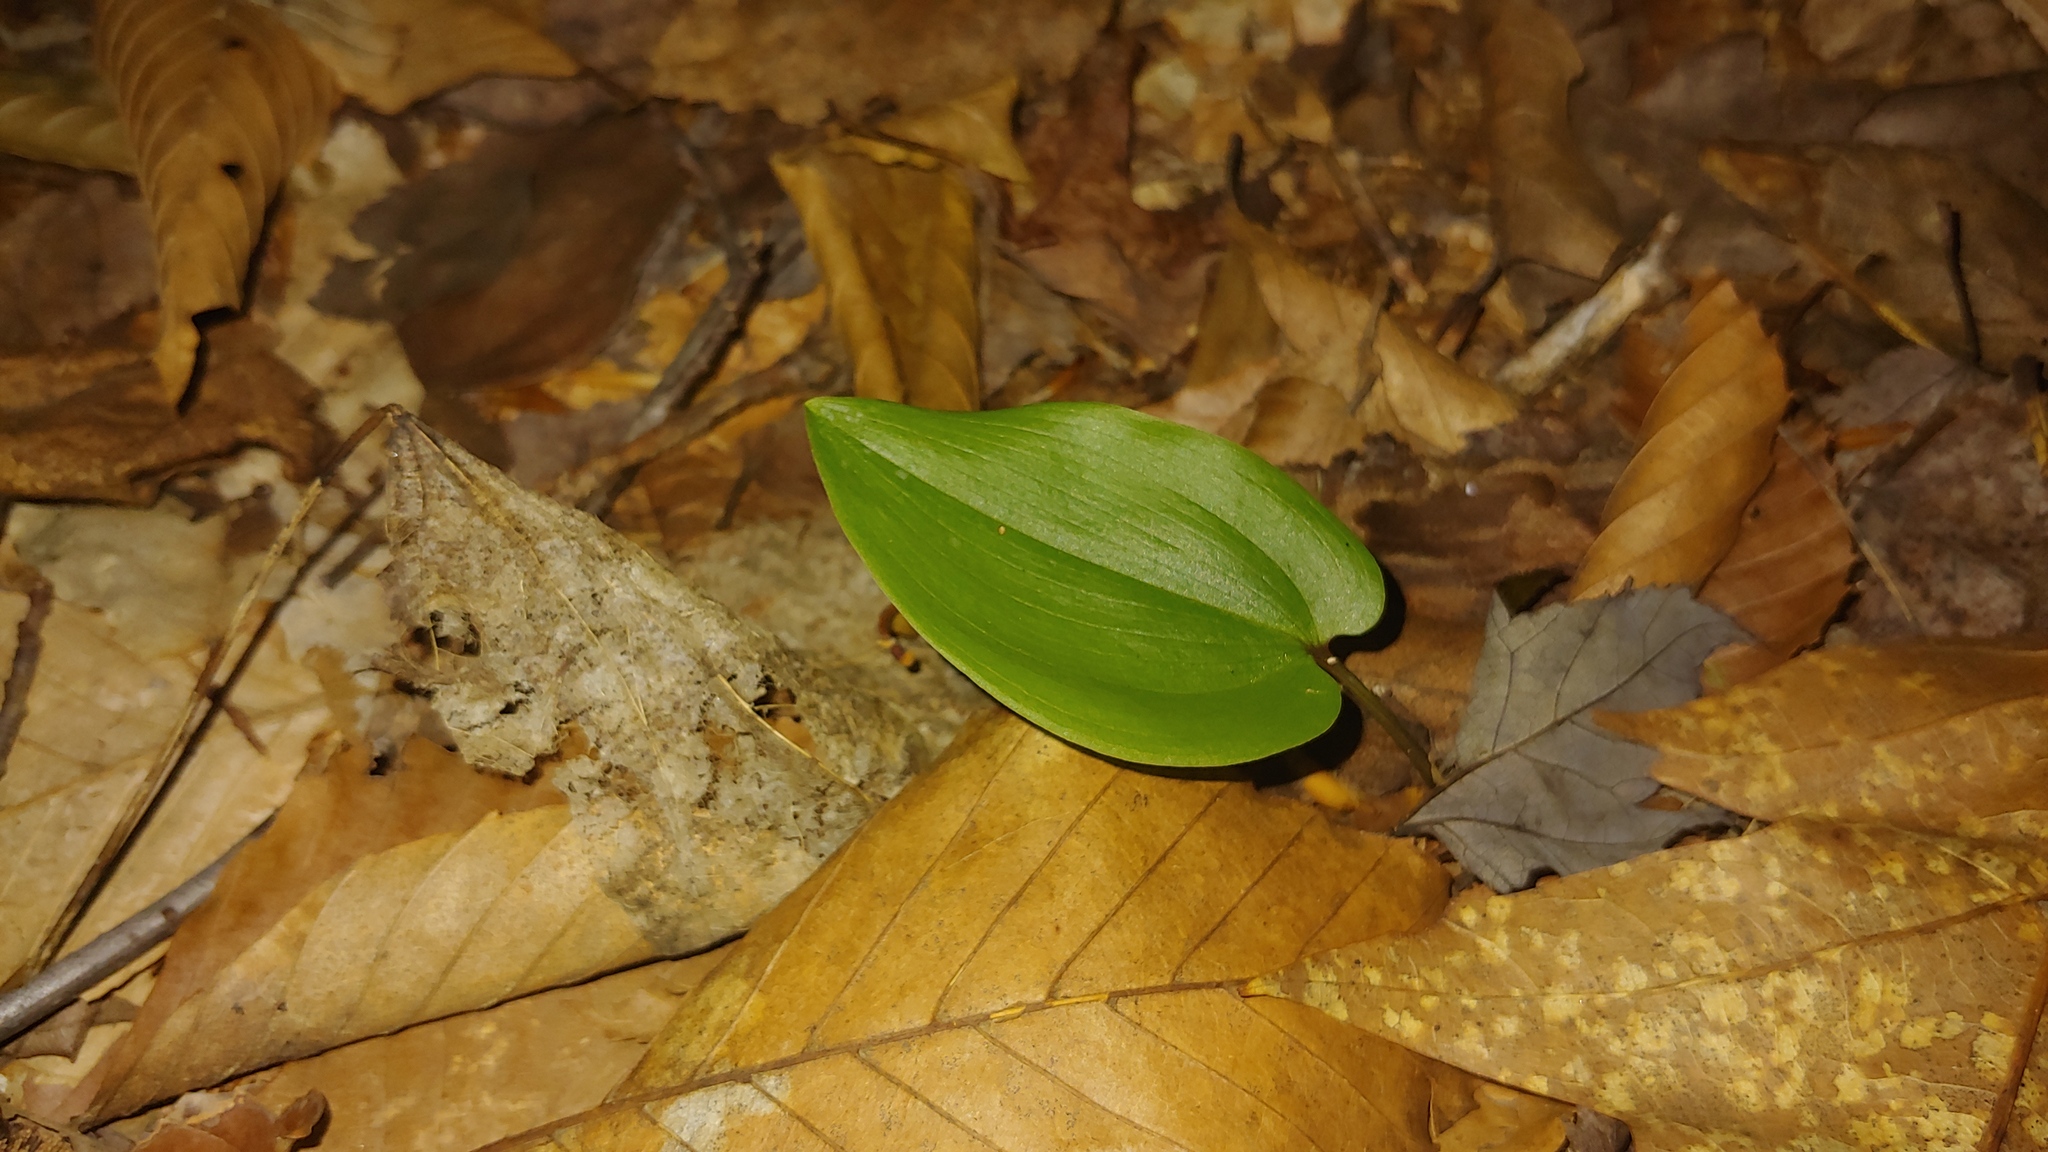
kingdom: Plantae
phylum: Tracheophyta
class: Liliopsida
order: Asparagales
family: Asparagaceae
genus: Maianthemum
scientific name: Maianthemum canadense
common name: False lily-of-the-valley
